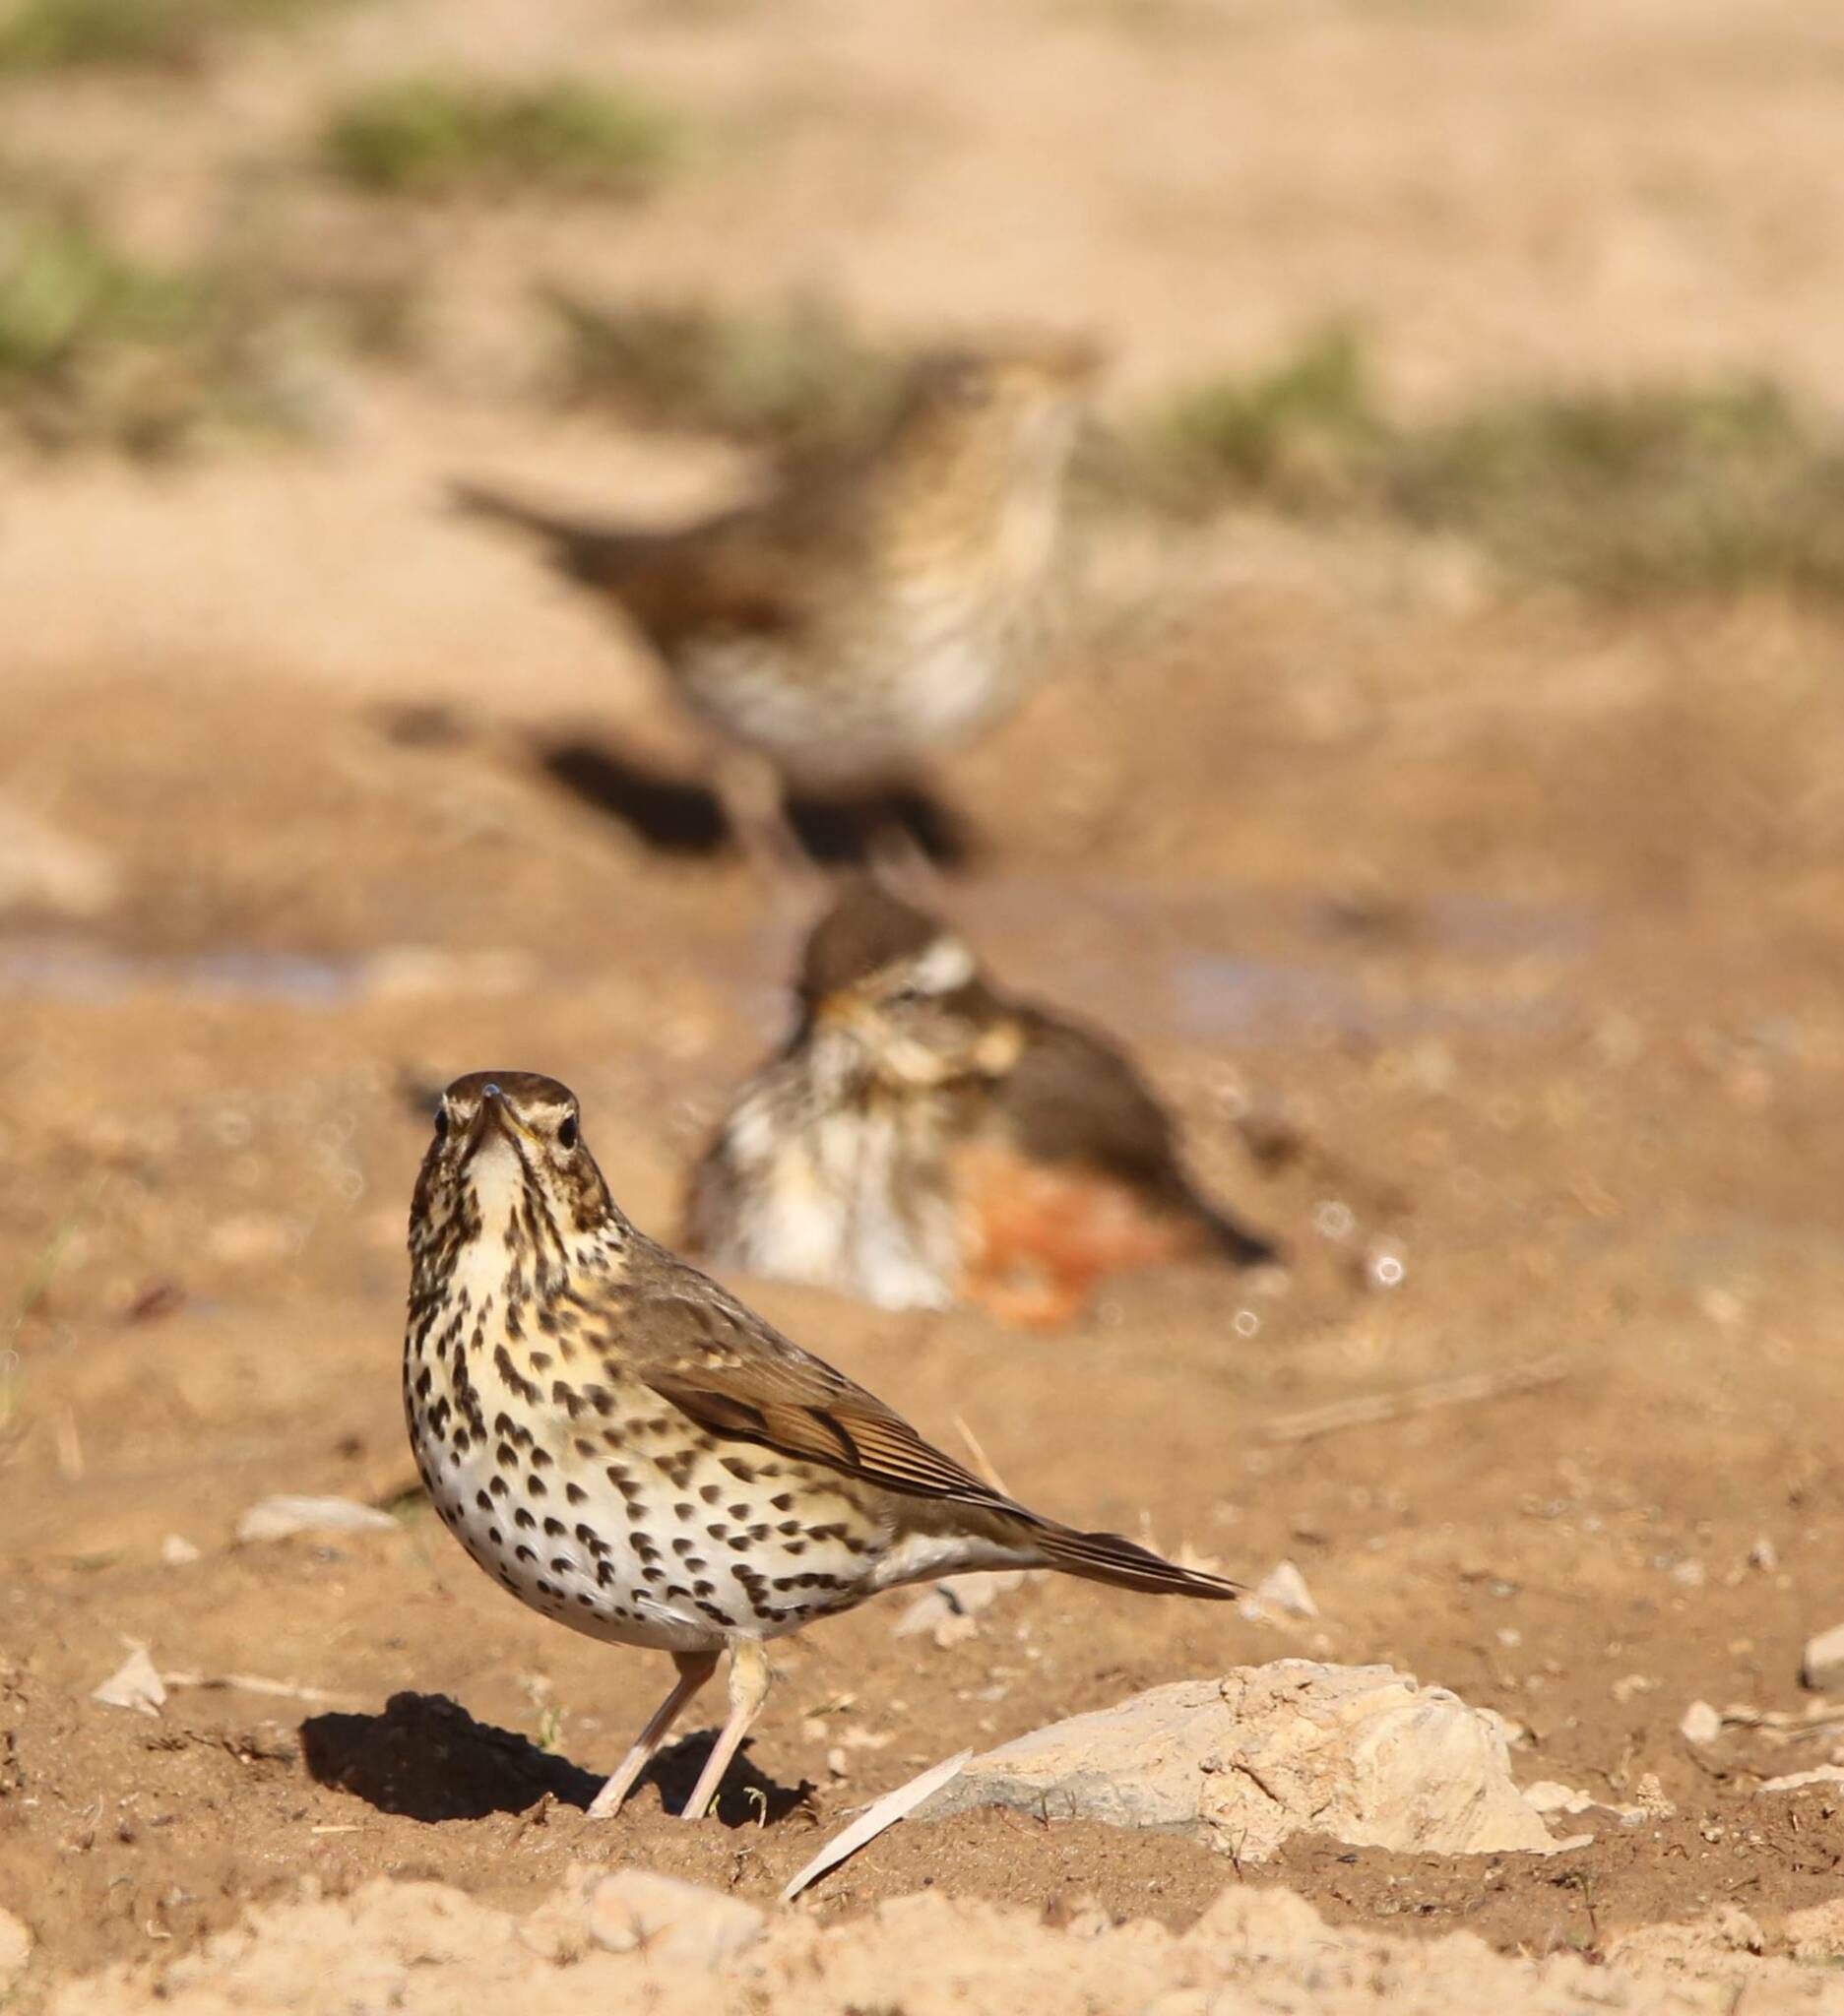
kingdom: Animalia
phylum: Chordata
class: Aves
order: Passeriformes
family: Turdidae
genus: Turdus
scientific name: Turdus philomelos
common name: Song thrush
